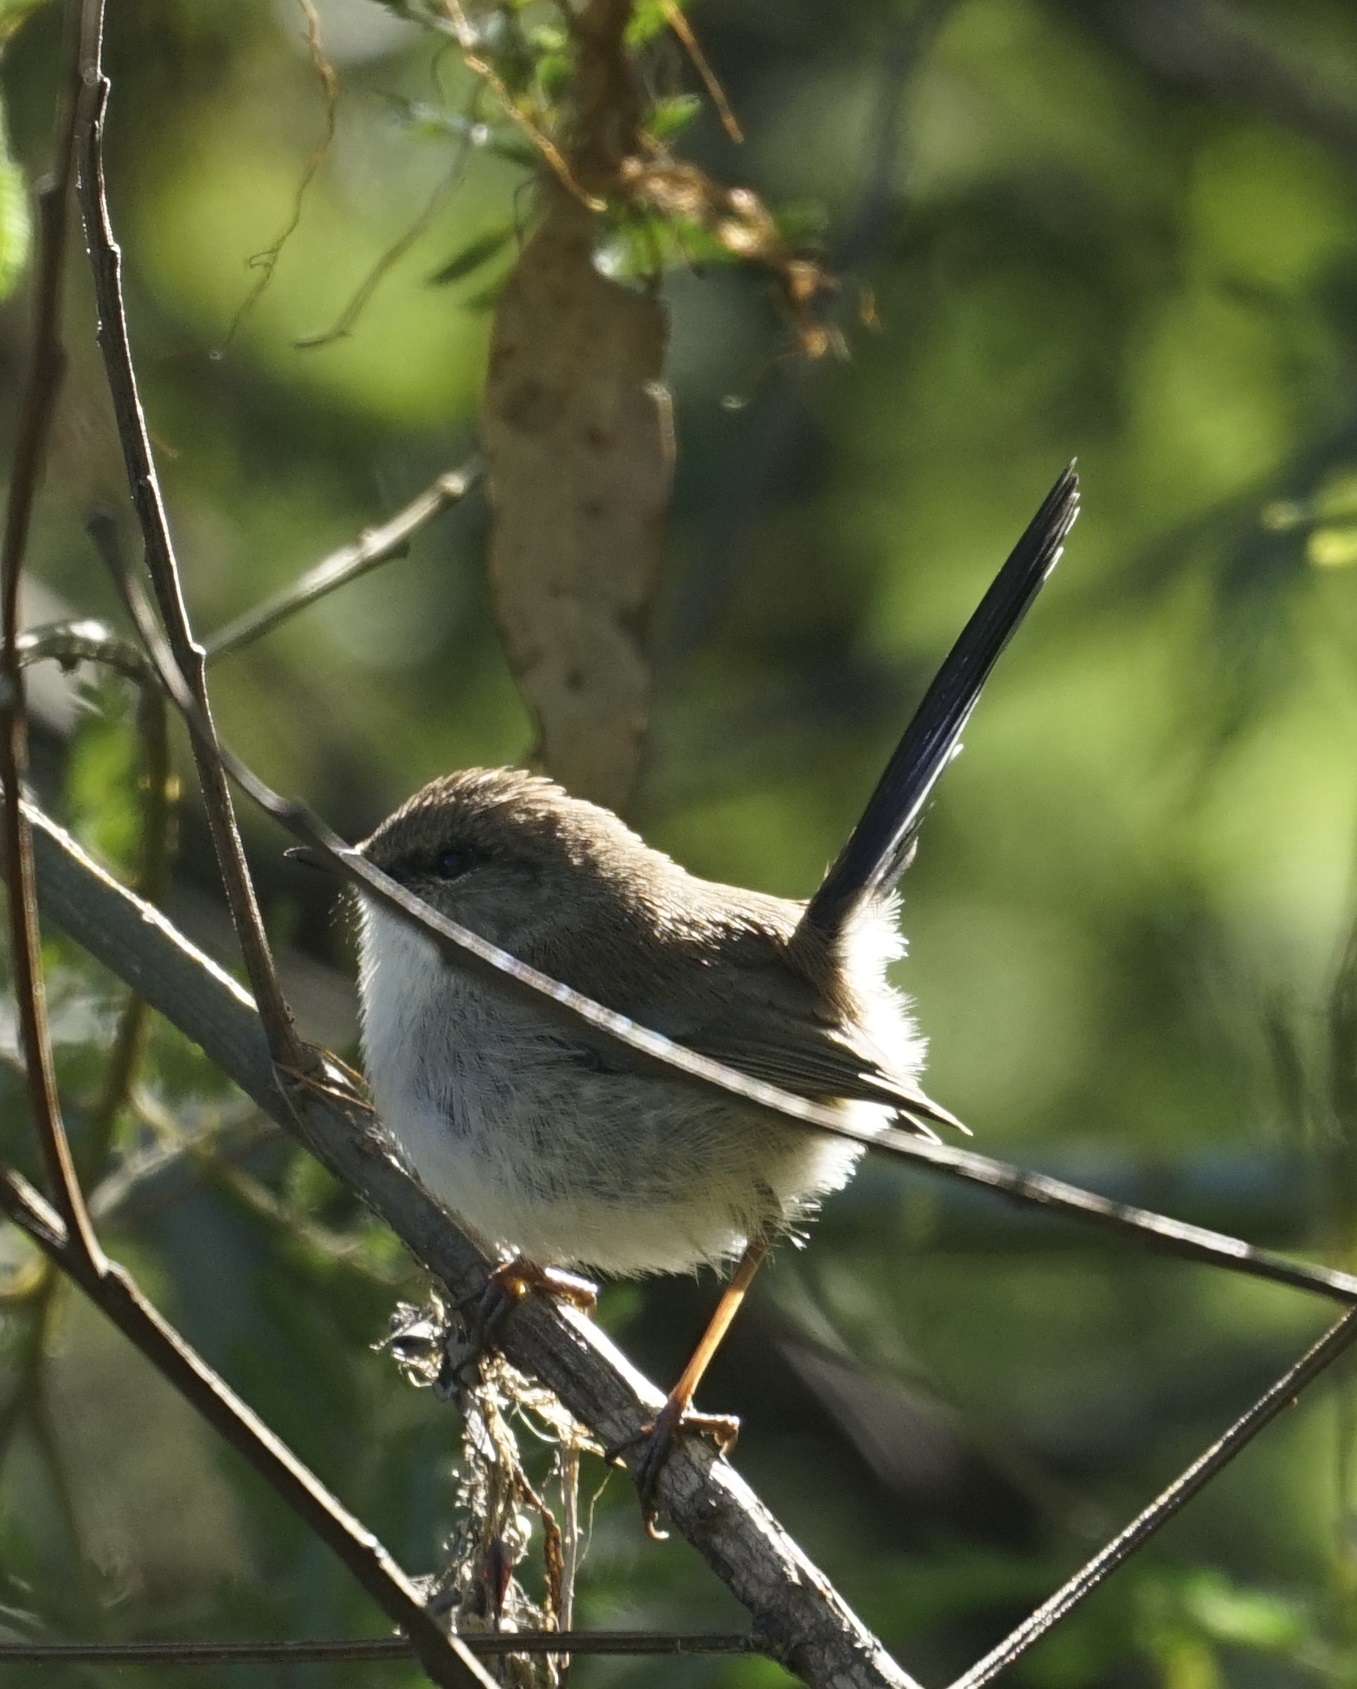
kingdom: Animalia
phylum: Chordata
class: Aves
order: Passeriformes
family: Maluridae
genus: Malurus
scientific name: Malurus cyaneus
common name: Superb fairywren
